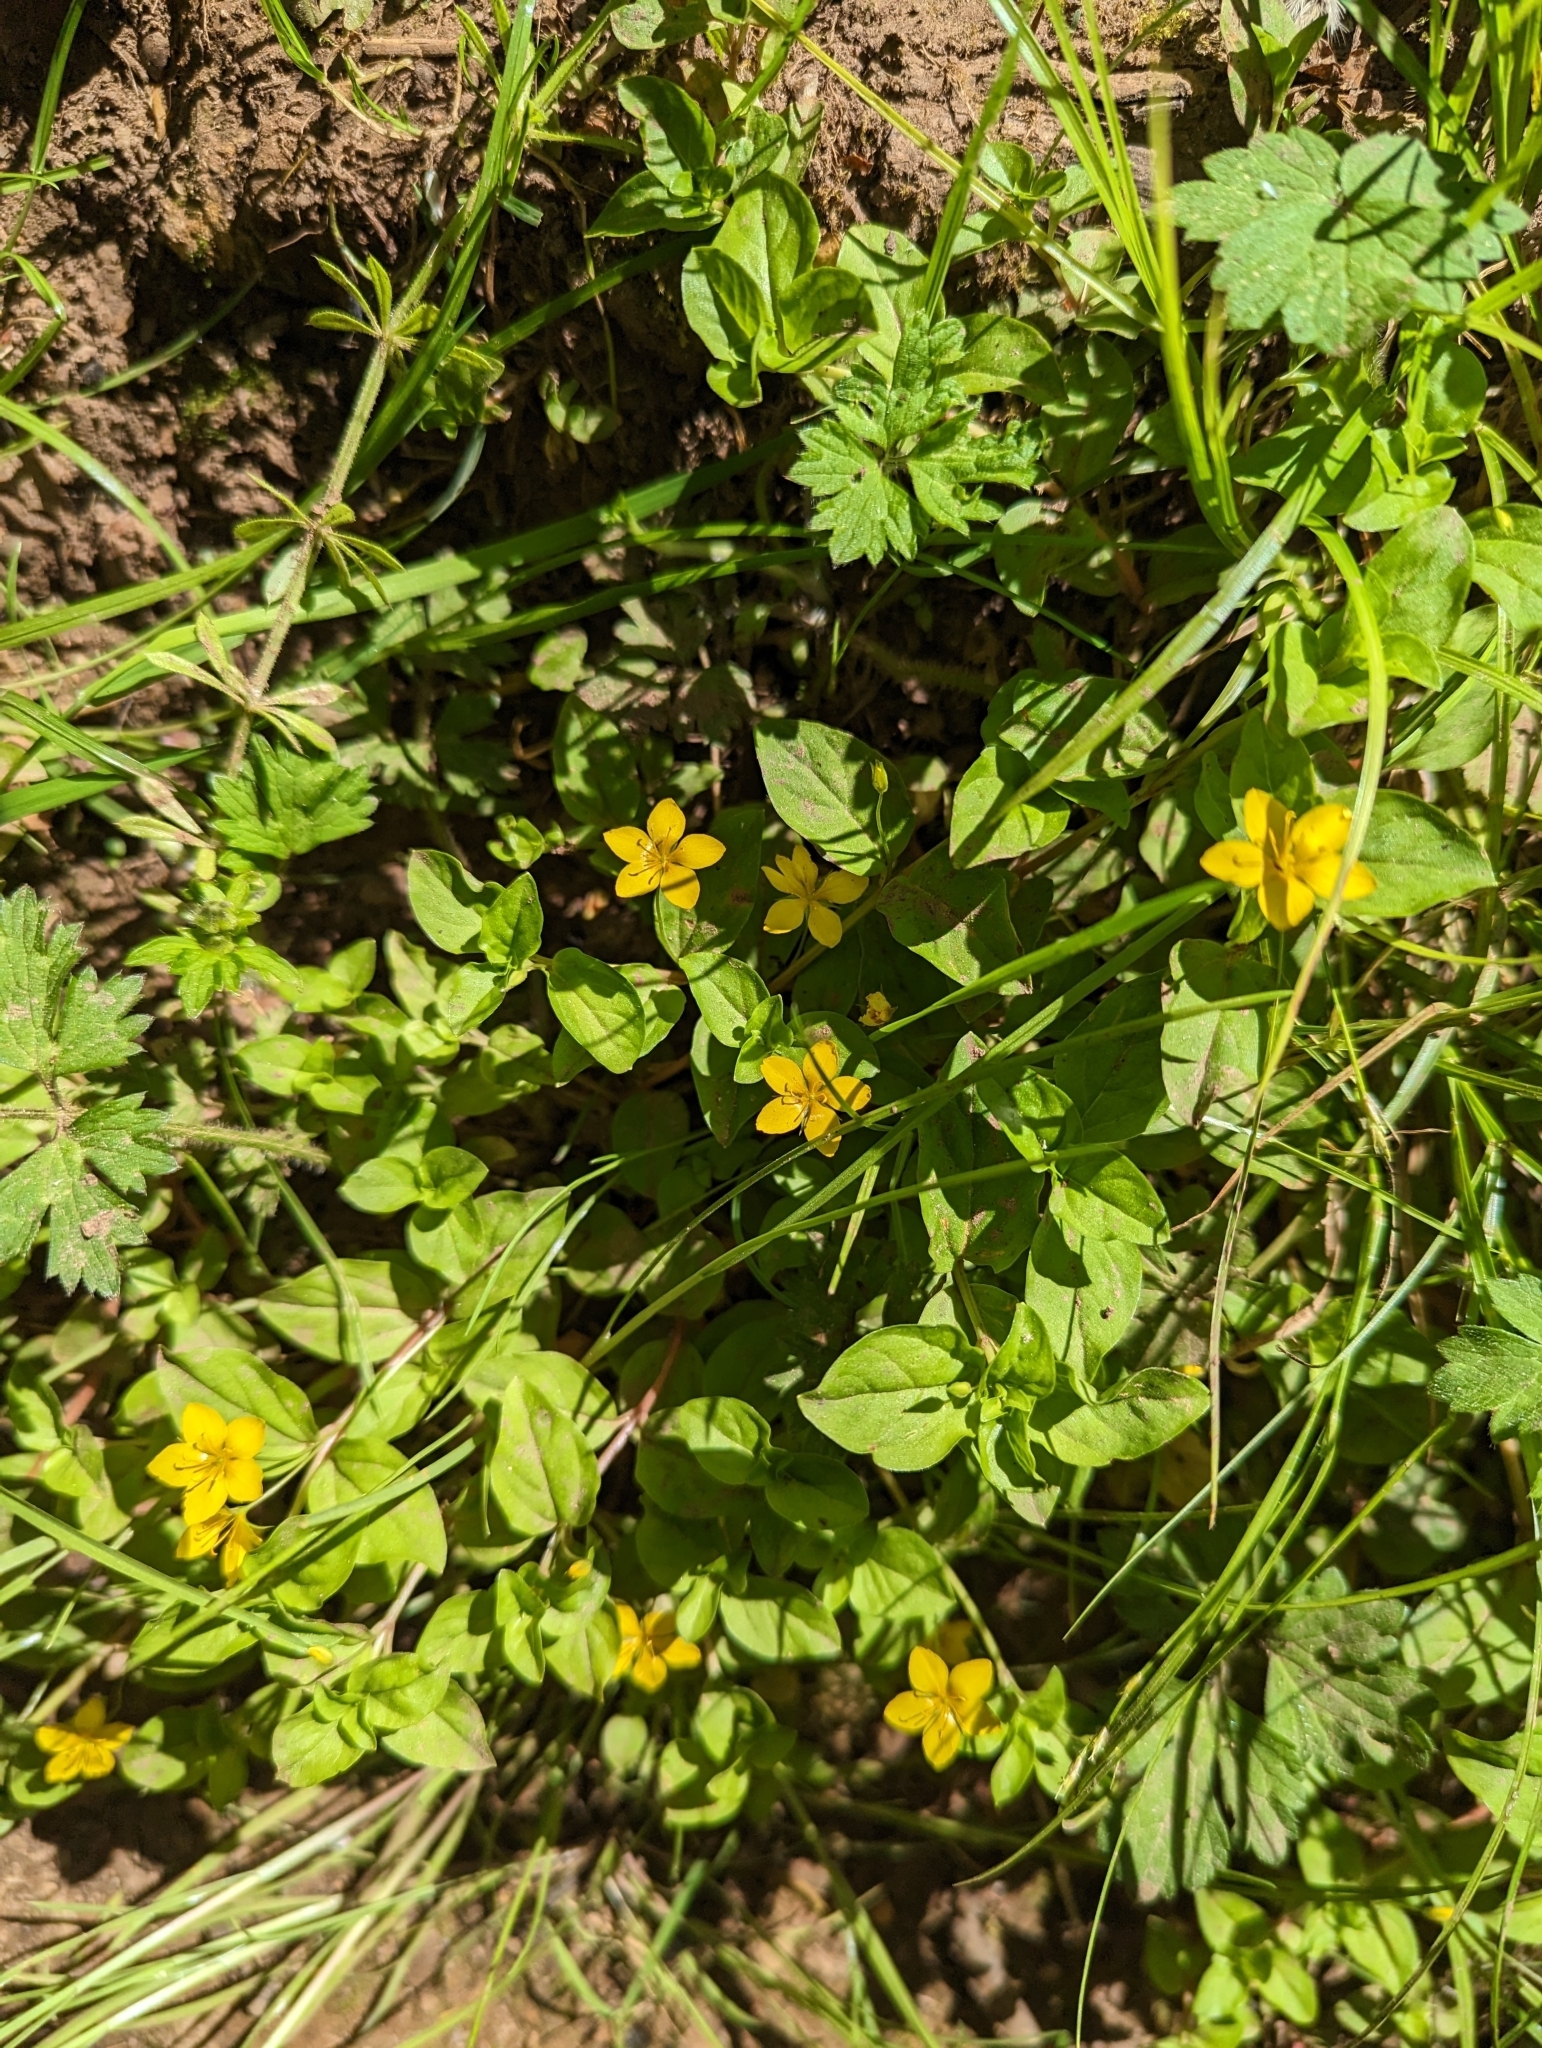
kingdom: Plantae
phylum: Tracheophyta
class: Magnoliopsida
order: Ericales
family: Primulaceae
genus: Lysimachia
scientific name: Lysimachia nemorum
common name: Yellow pimpernel
